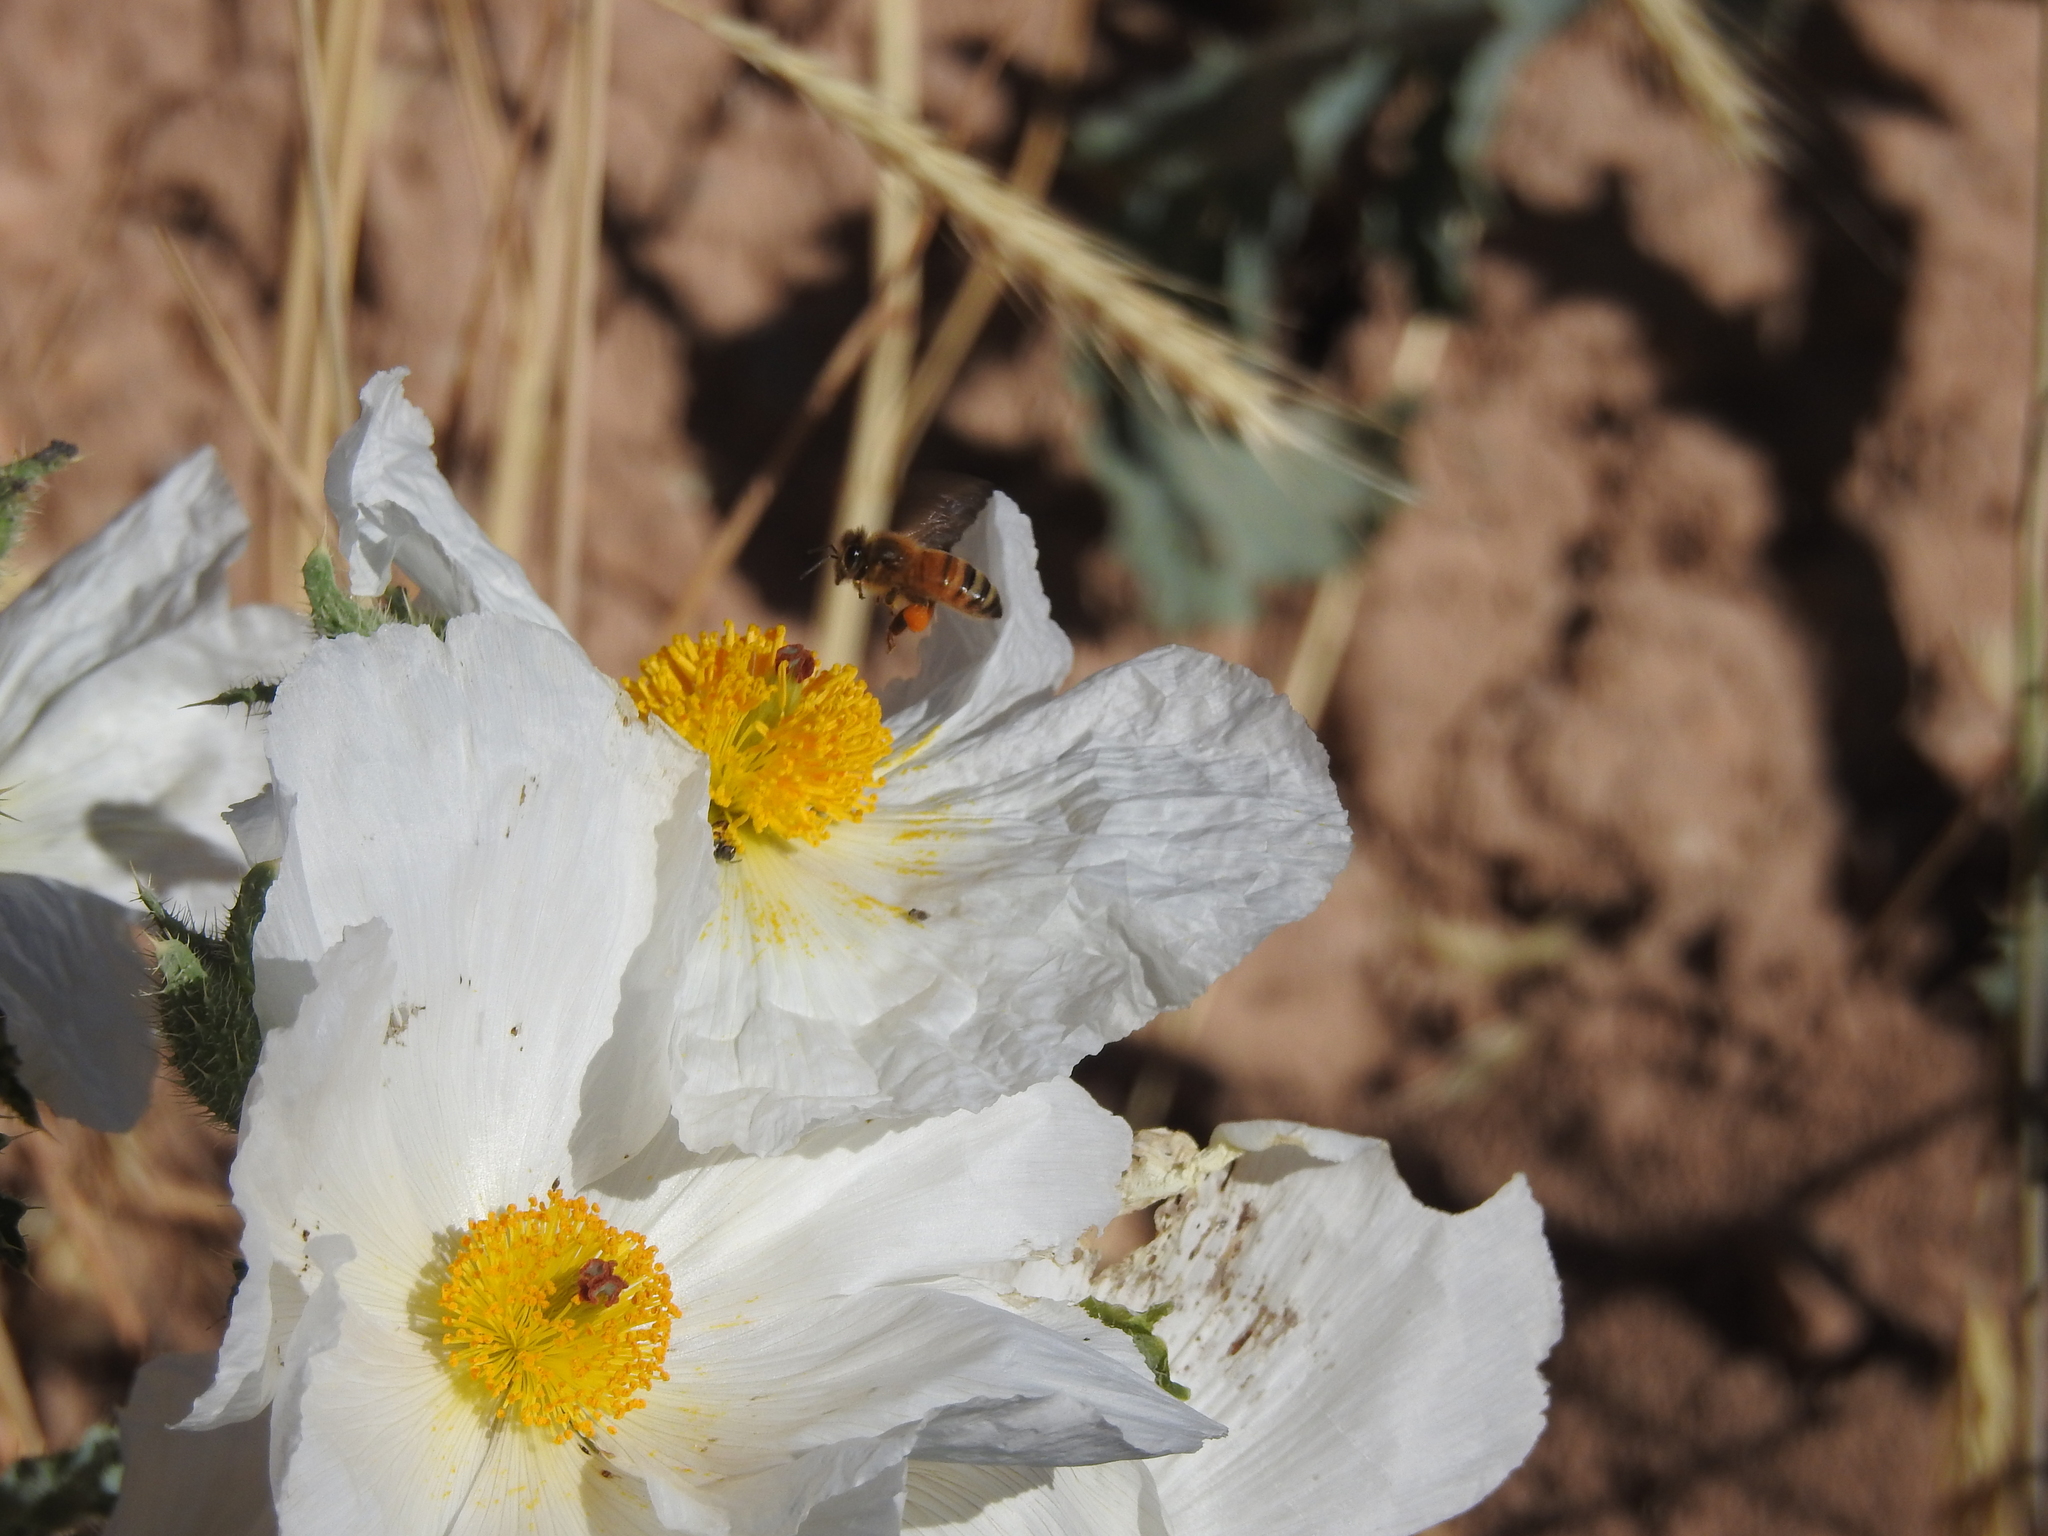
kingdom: Animalia
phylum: Arthropoda
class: Insecta
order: Hymenoptera
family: Apidae
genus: Apis
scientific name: Apis mellifera
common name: Honey bee
